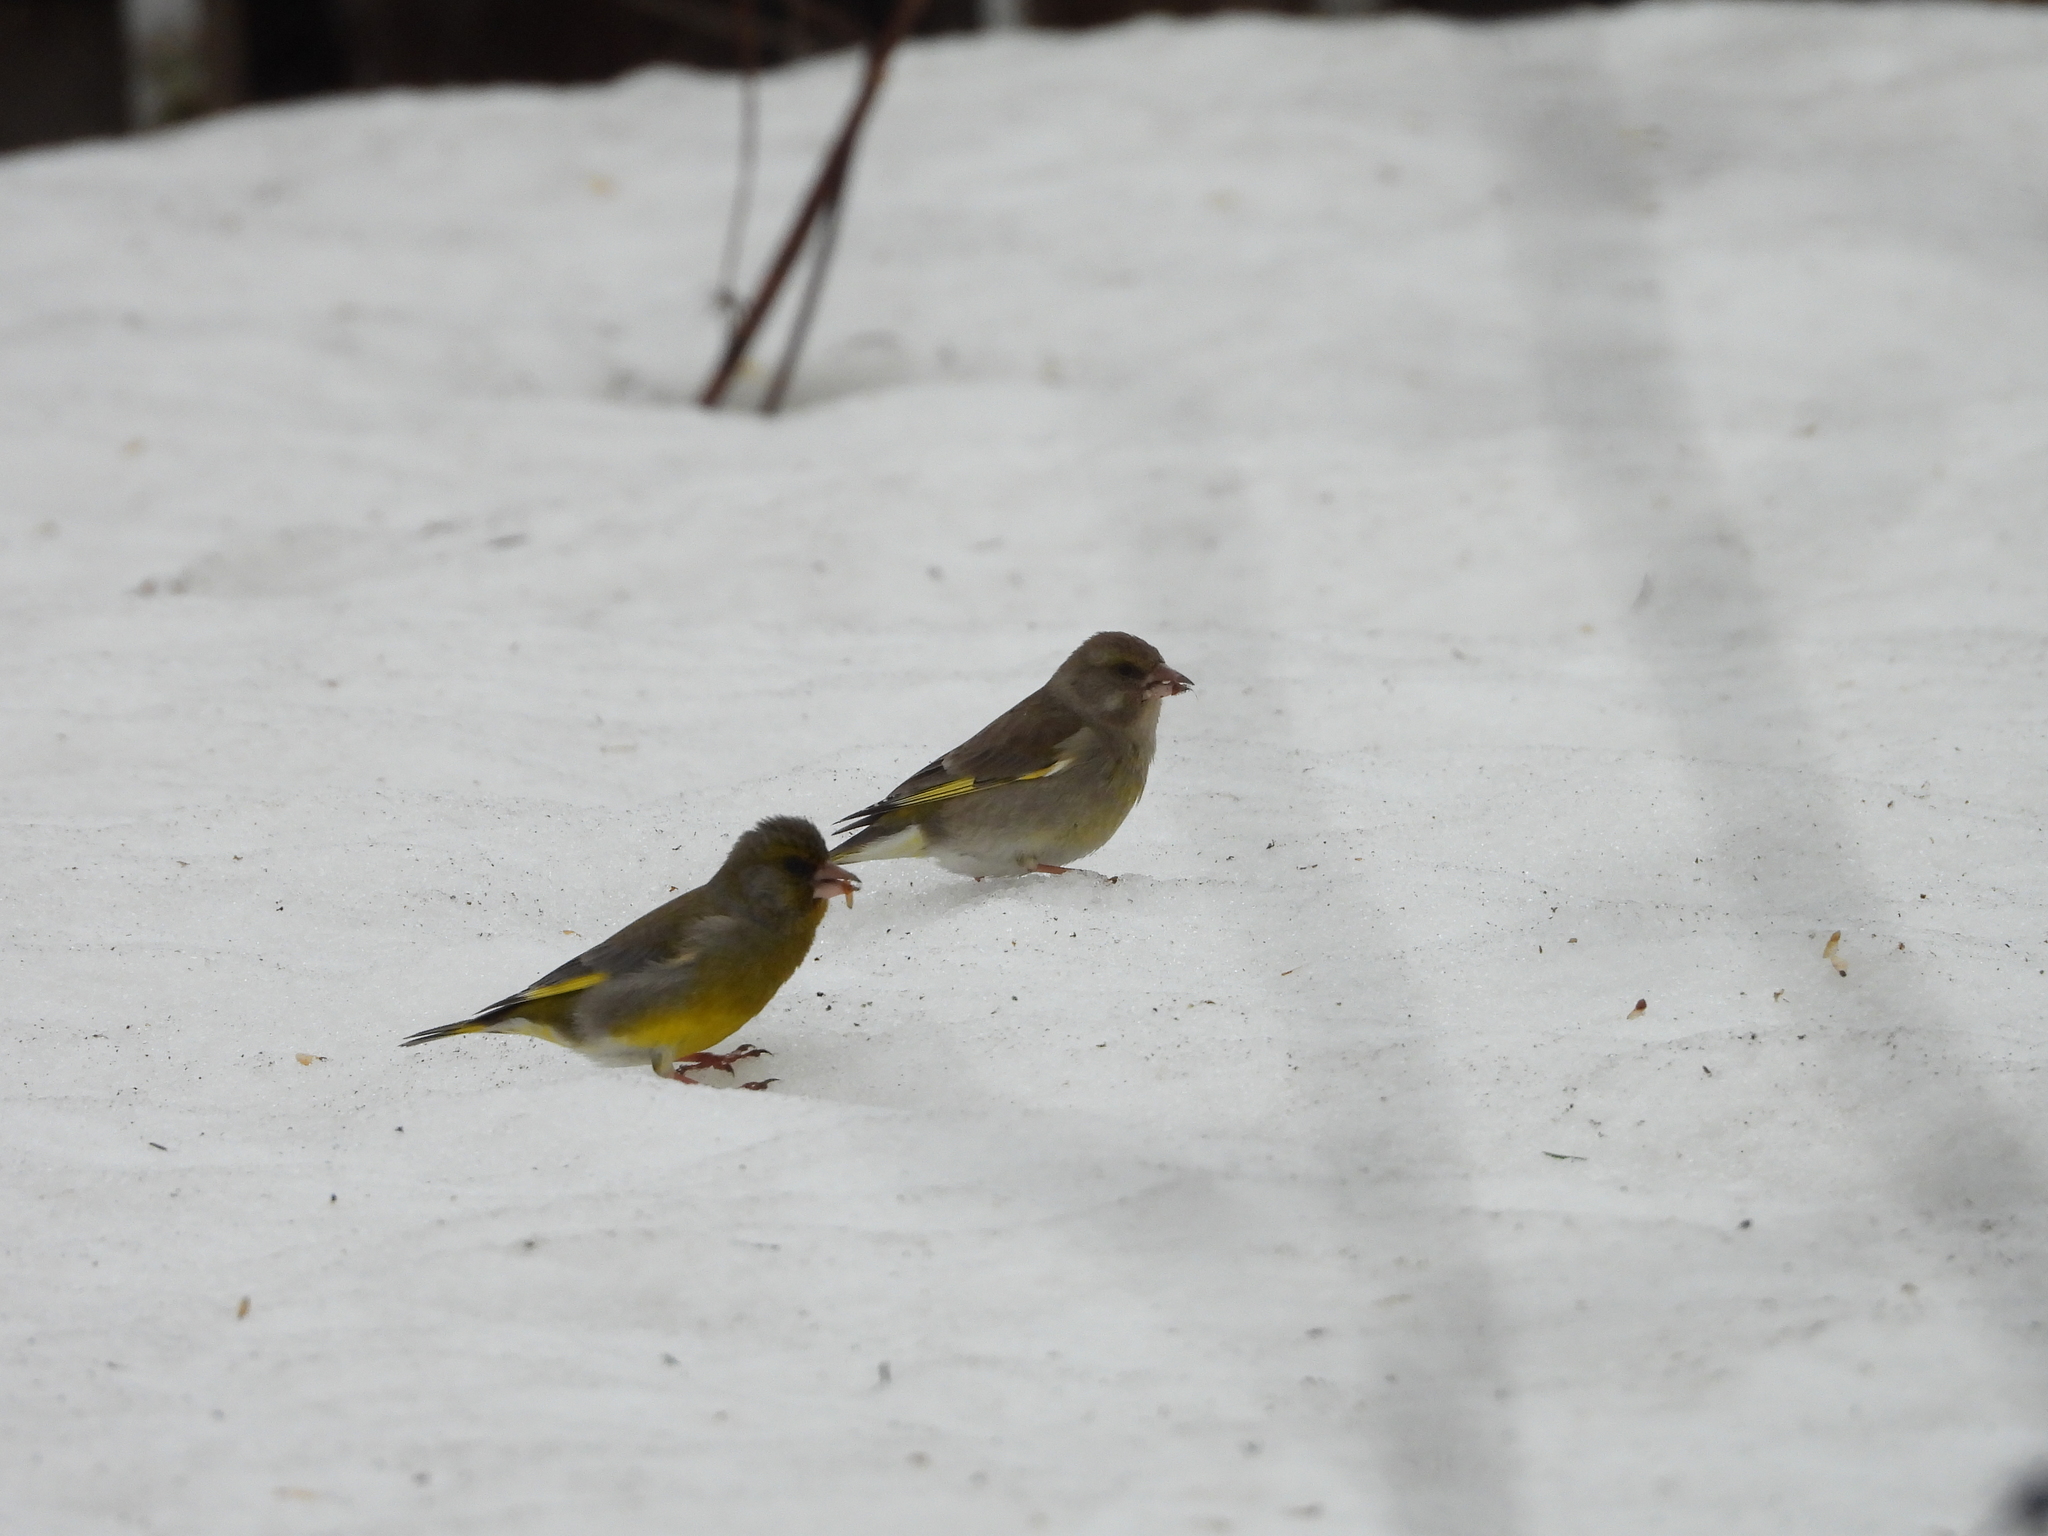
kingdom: Plantae
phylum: Tracheophyta
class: Liliopsida
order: Poales
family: Poaceae
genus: Chloris
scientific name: Chloris chloris
